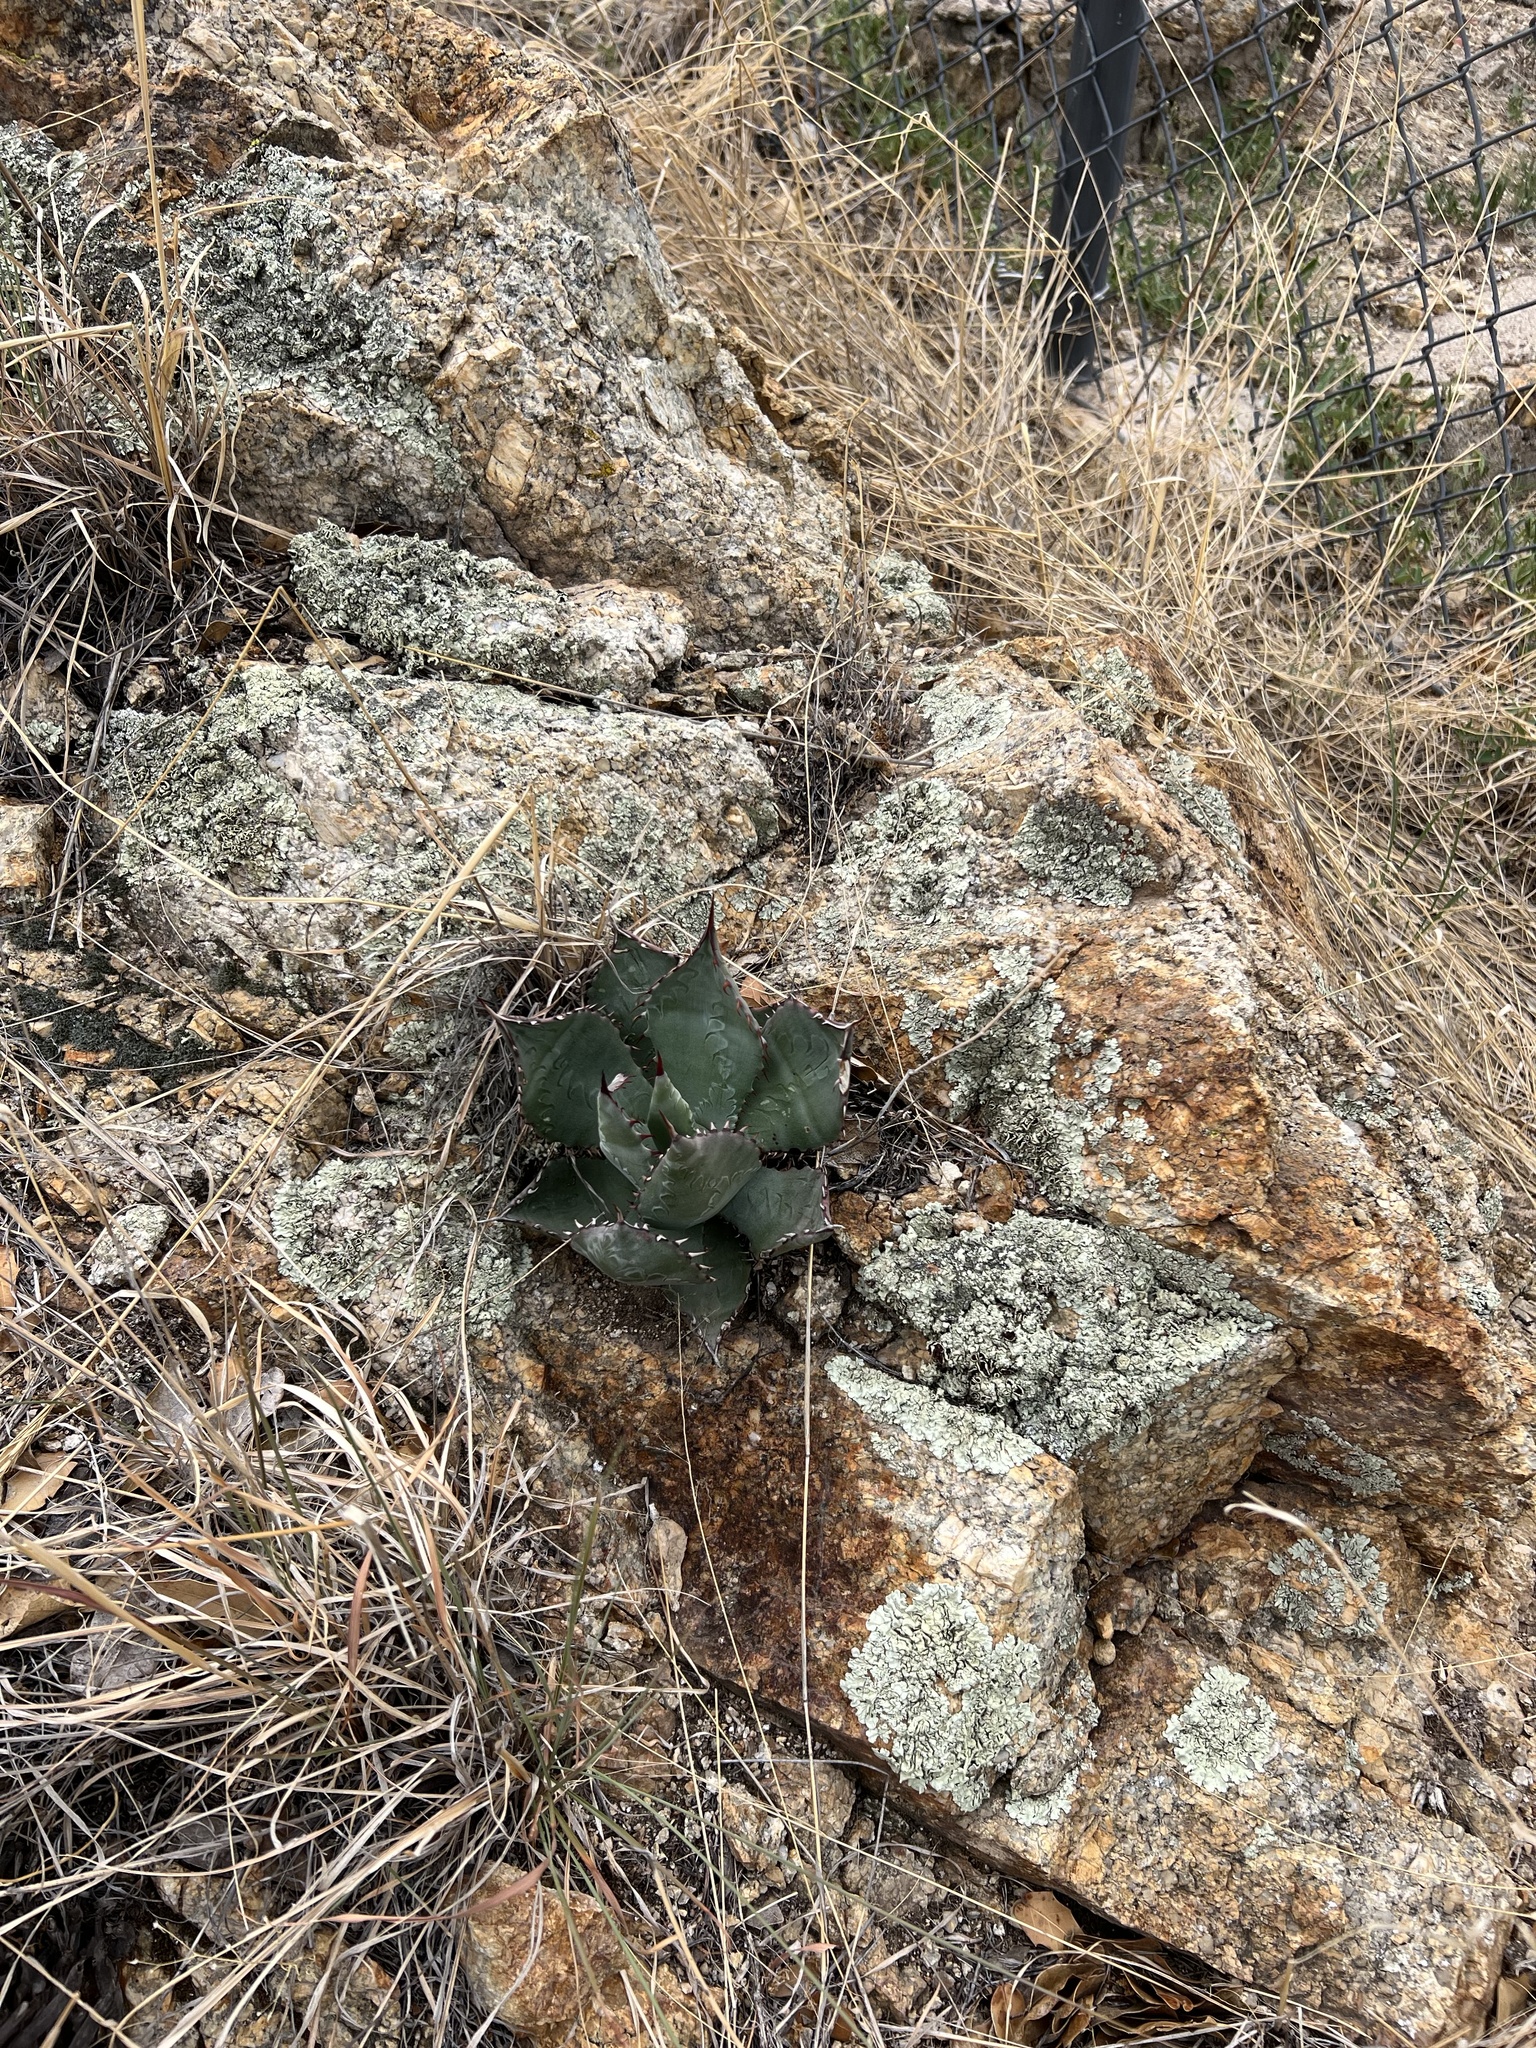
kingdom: Plantae
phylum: Tracheophyta
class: Liliopsida
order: Asparagales
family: Asparagaceae
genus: Agave
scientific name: Agave palmeri
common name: Palmer agave
